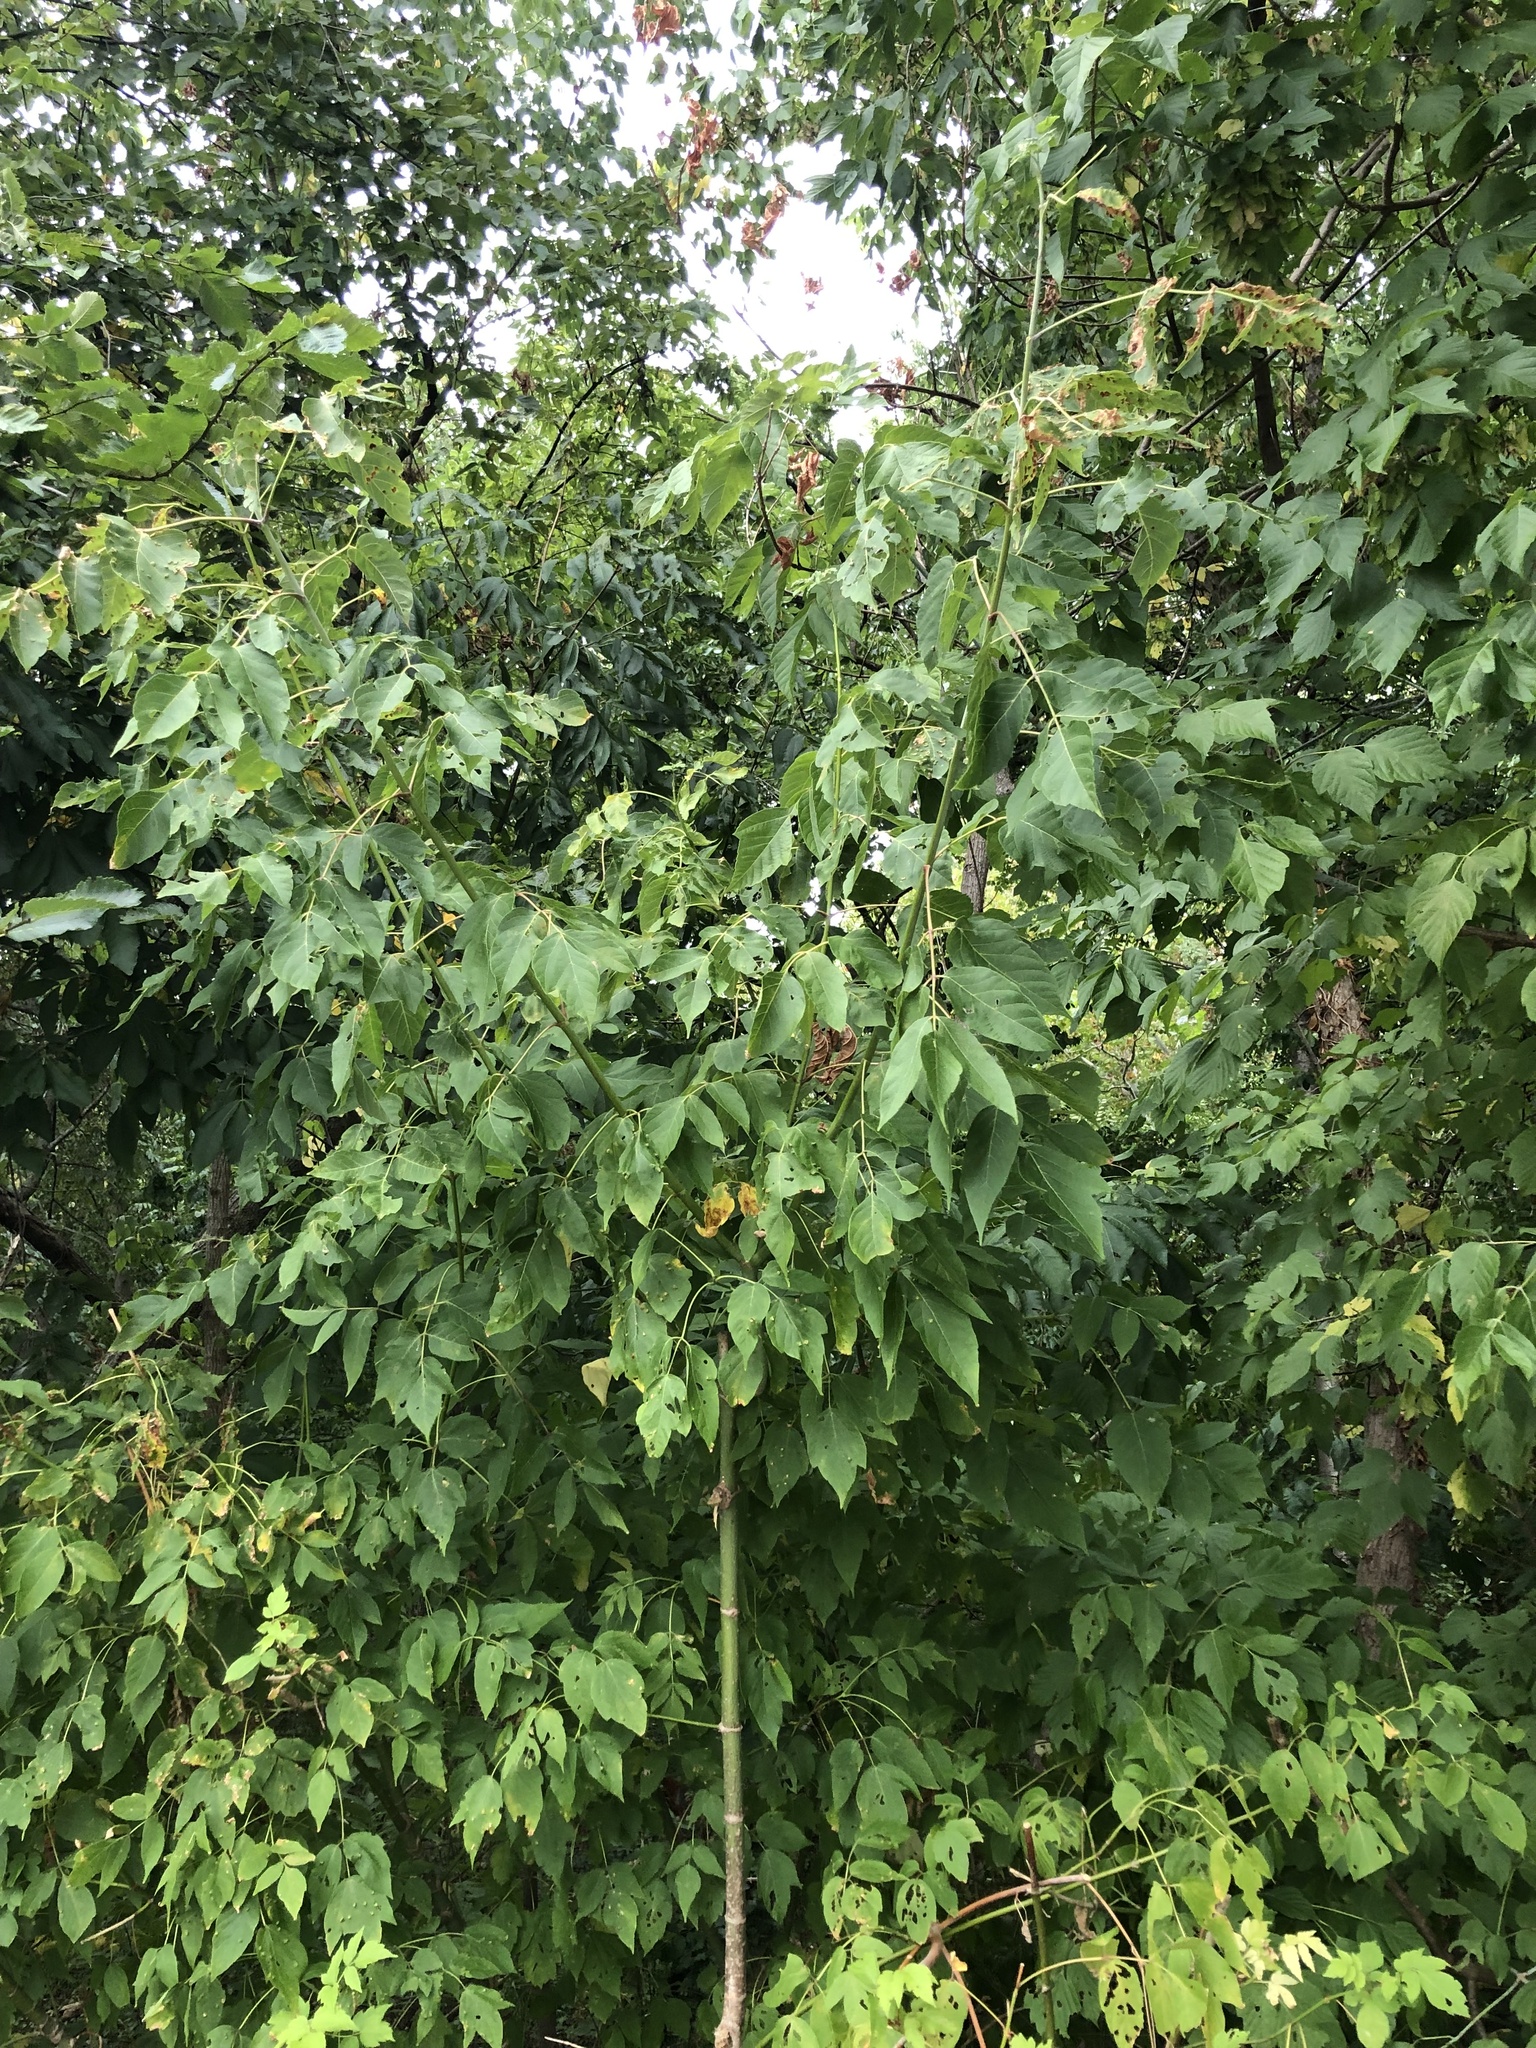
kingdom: Plantae
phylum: Tracheophyta
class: Magnoliopsida
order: Sapindales
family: Sapindaceae
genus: Acer
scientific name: Acer negundo
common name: Ashleaf maple
